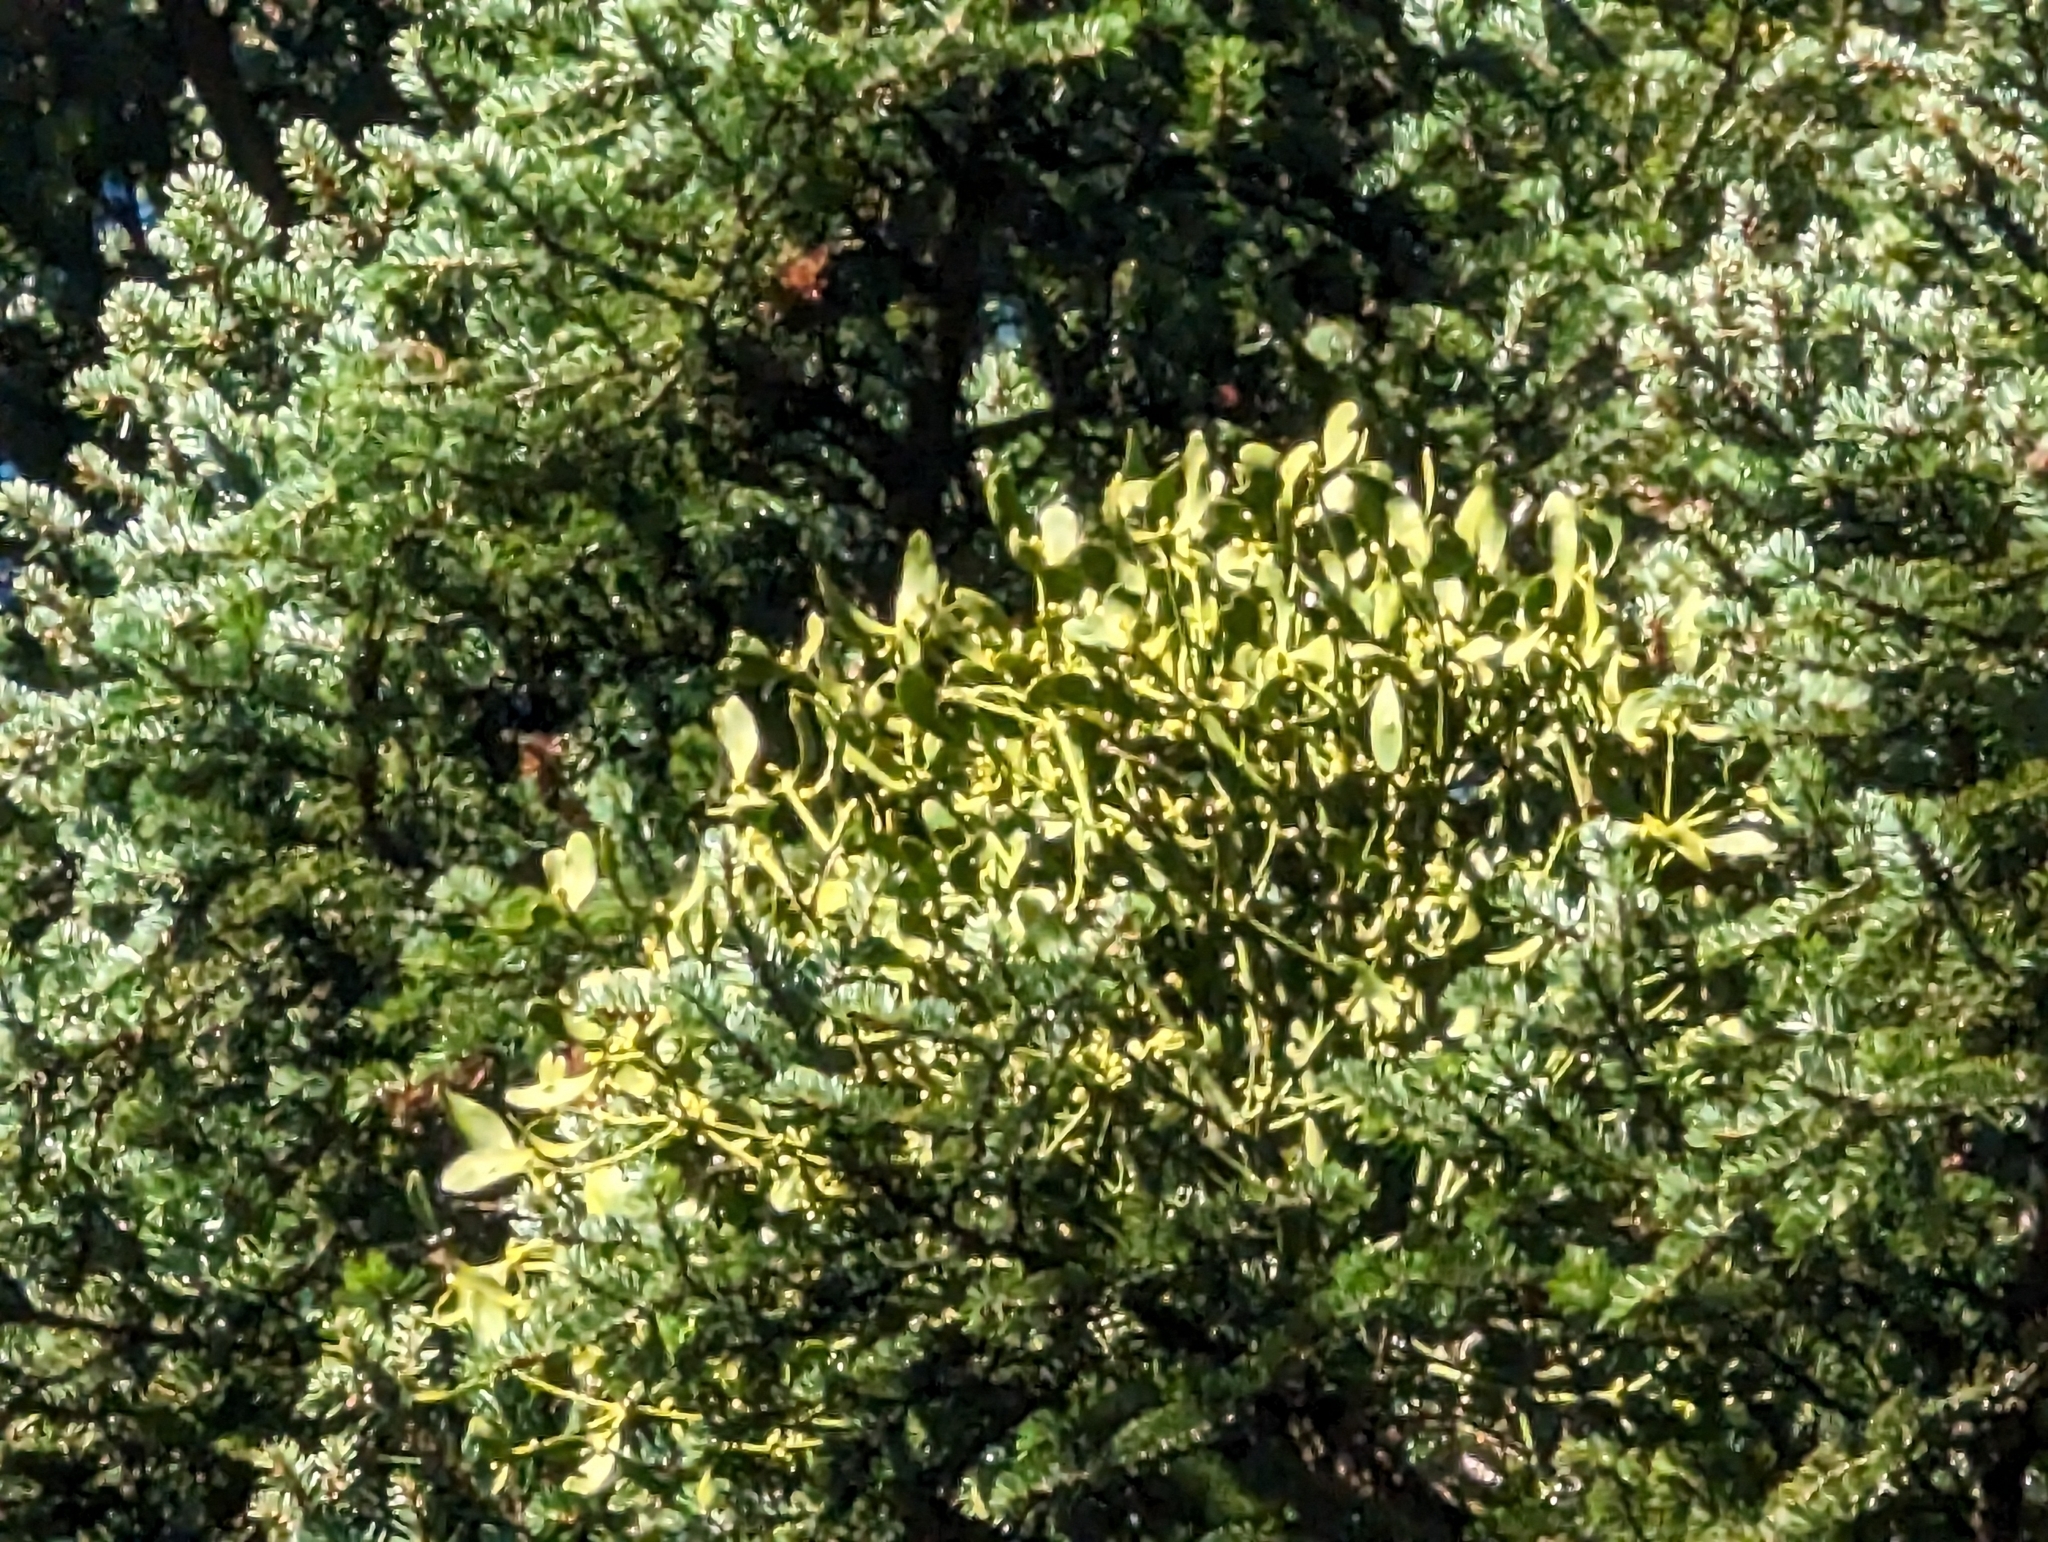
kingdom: Plantae
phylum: Tracheophyta
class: Magnoliopsida
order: Santalales
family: Viscaceae
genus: Viscum
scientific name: Viscum album
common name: Mistletoe
